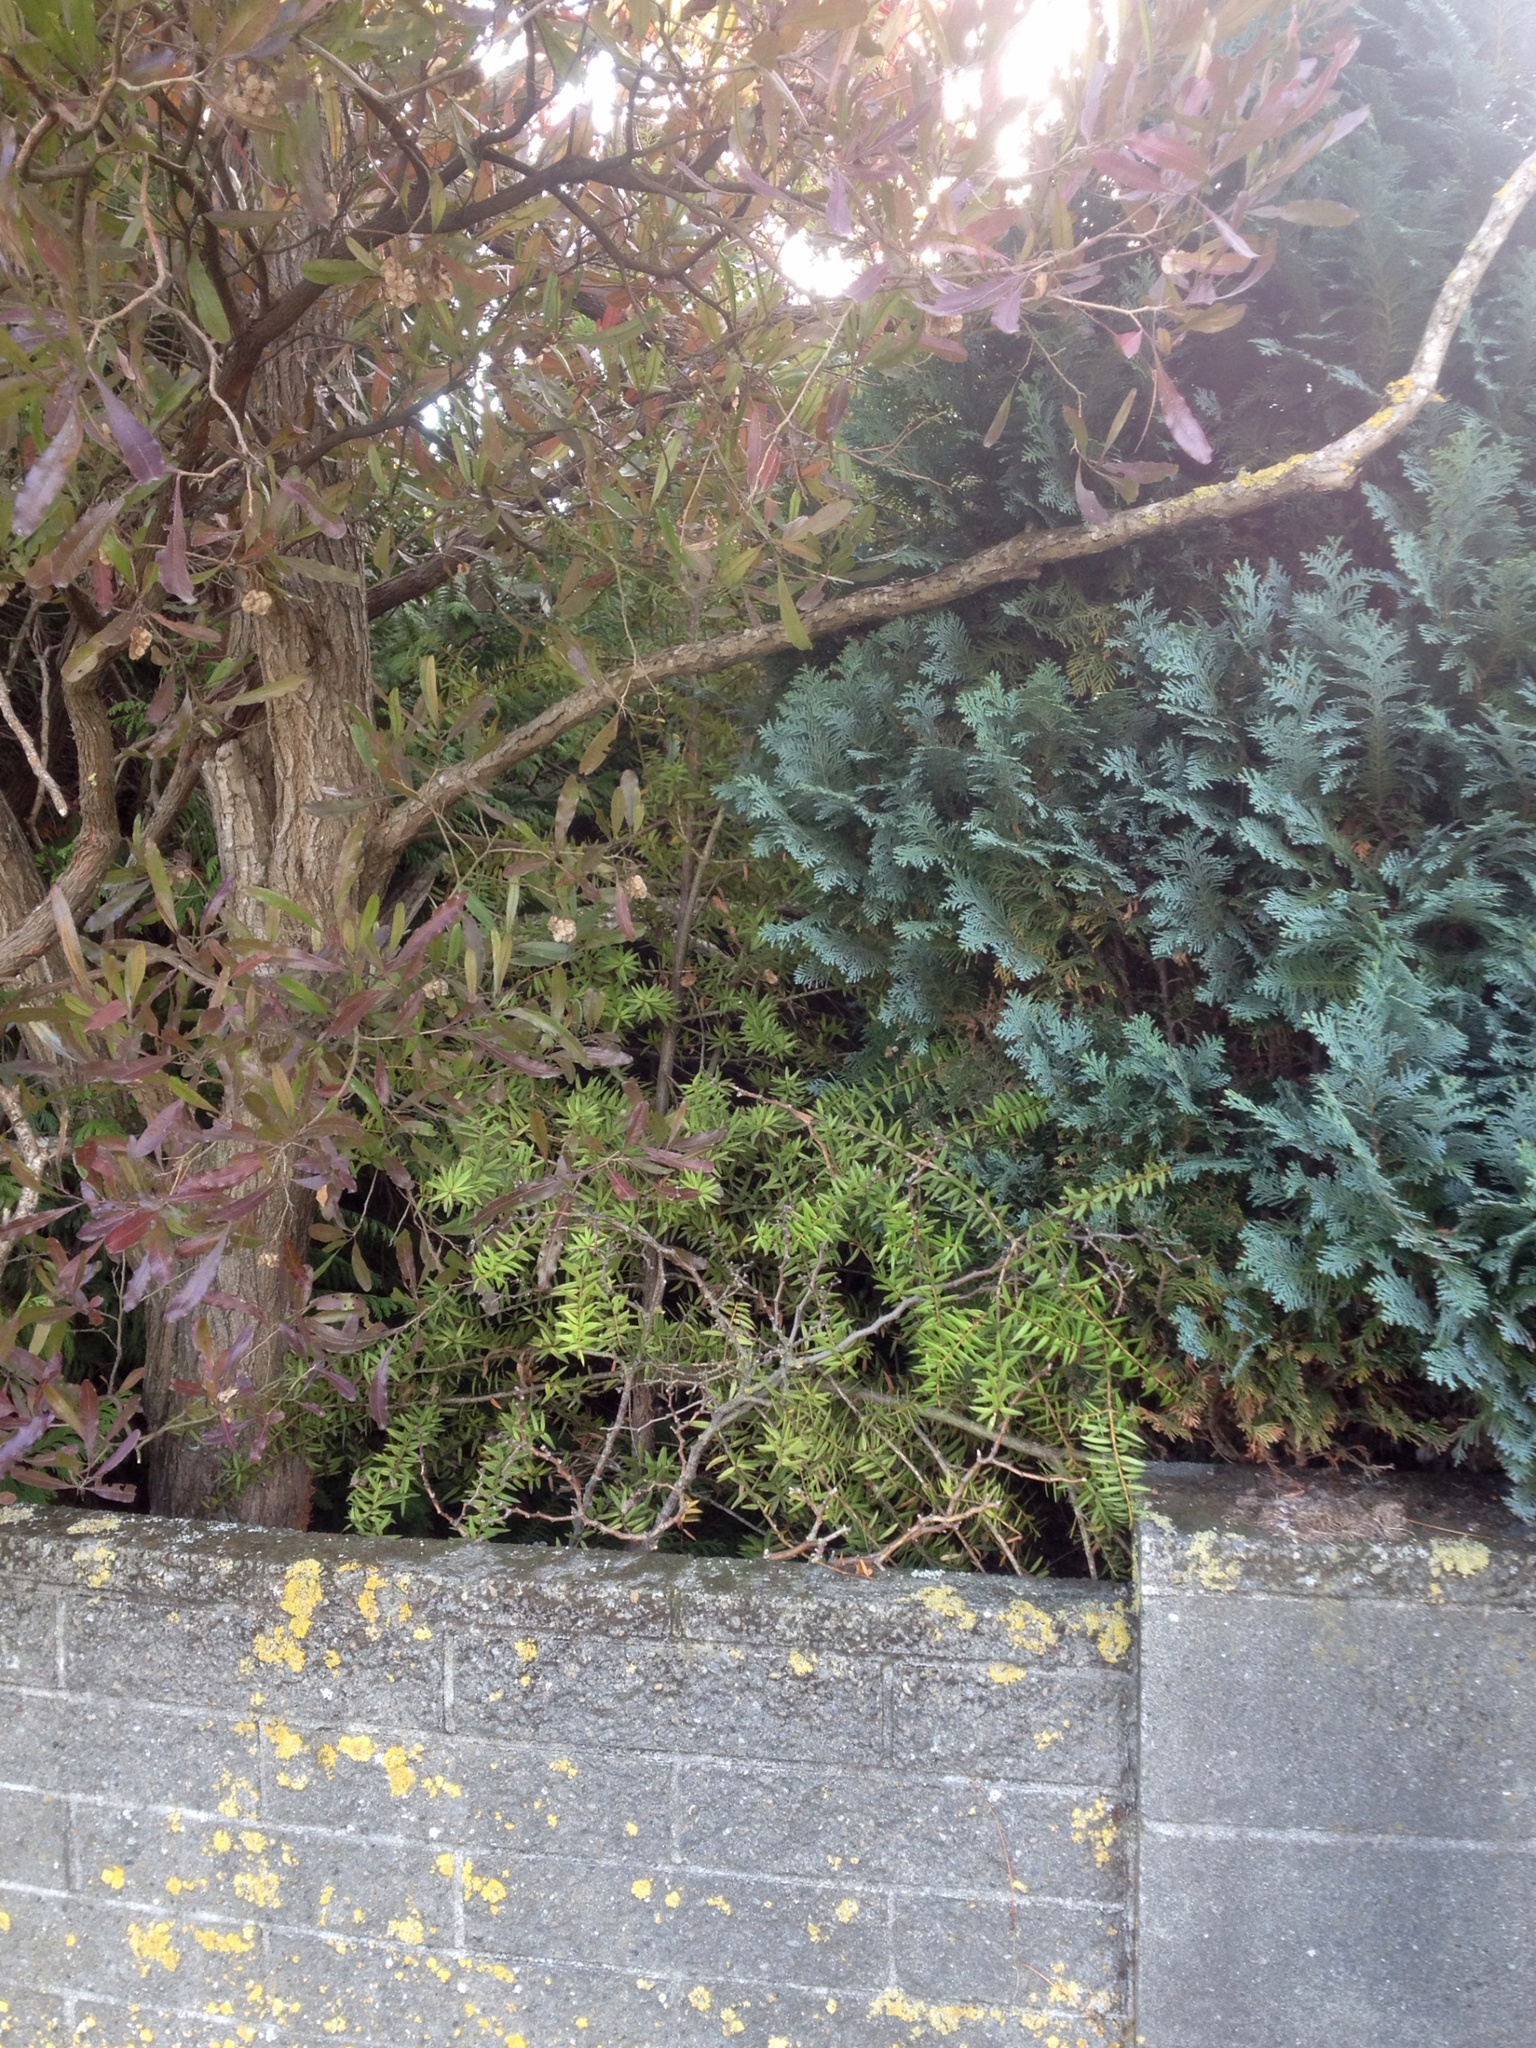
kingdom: Plantae
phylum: Tracheophyta
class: Pinopsida
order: Pinales
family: Podocarpaceae
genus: Podocarpus
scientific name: Podocarpus totara
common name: Totara
